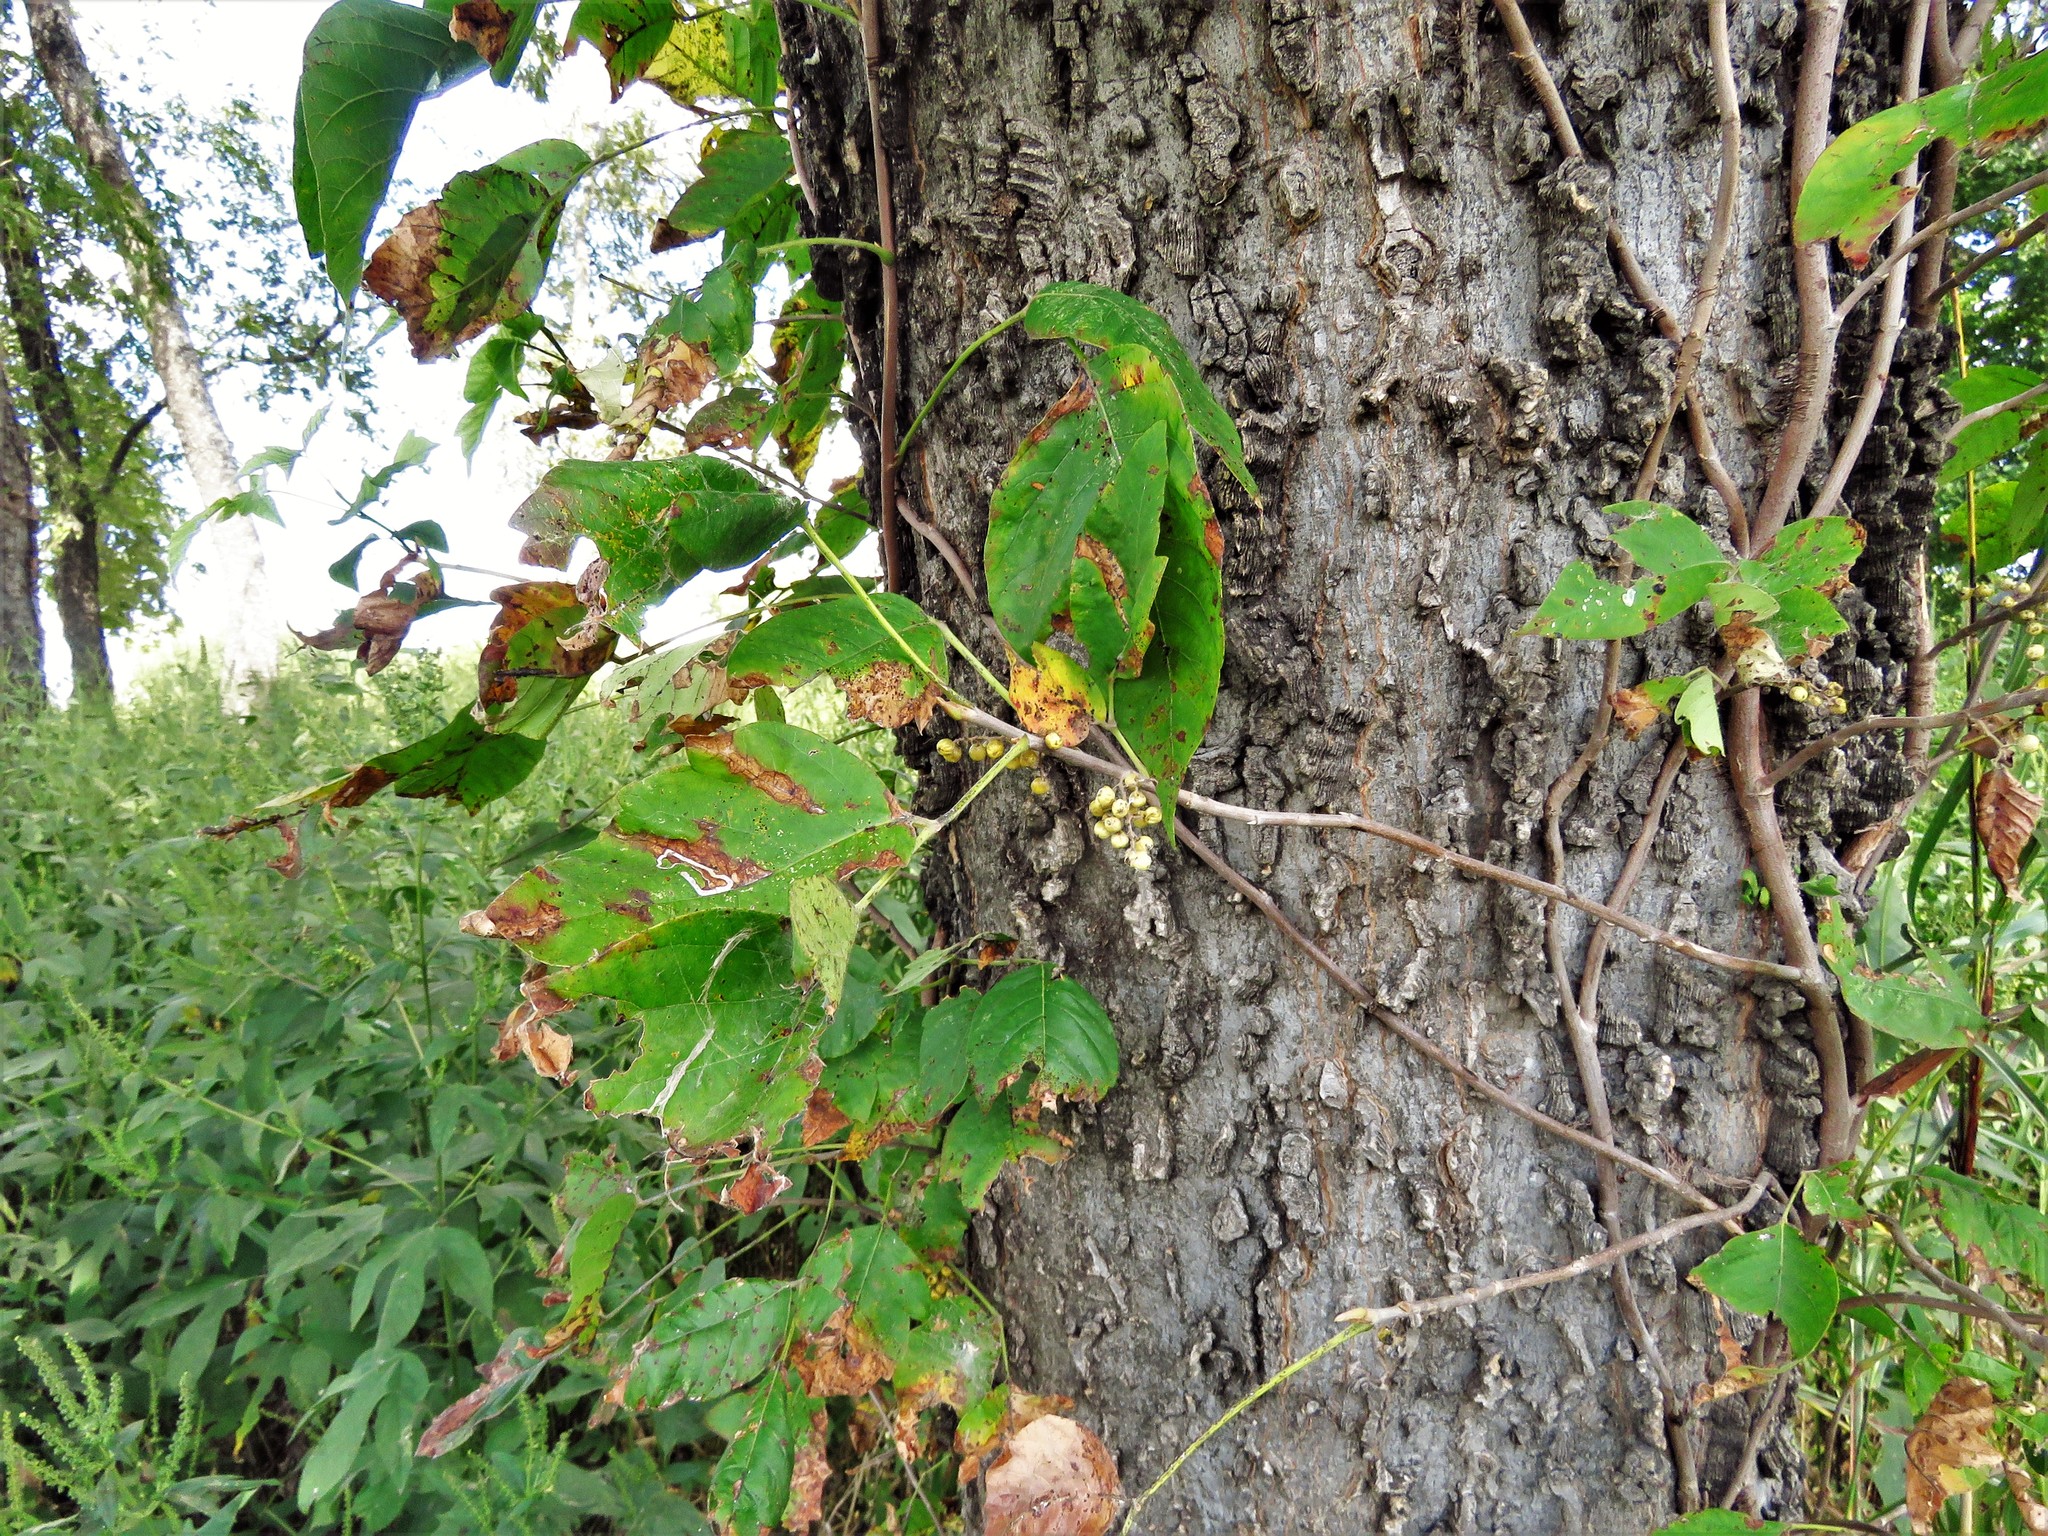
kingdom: Plantae
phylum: Tracheophyta
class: Magnoliopsida
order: Sapindales
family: Anacardiaceae
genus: Toxicodendron
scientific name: Toxicodendron radicans
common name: Poison ivy
